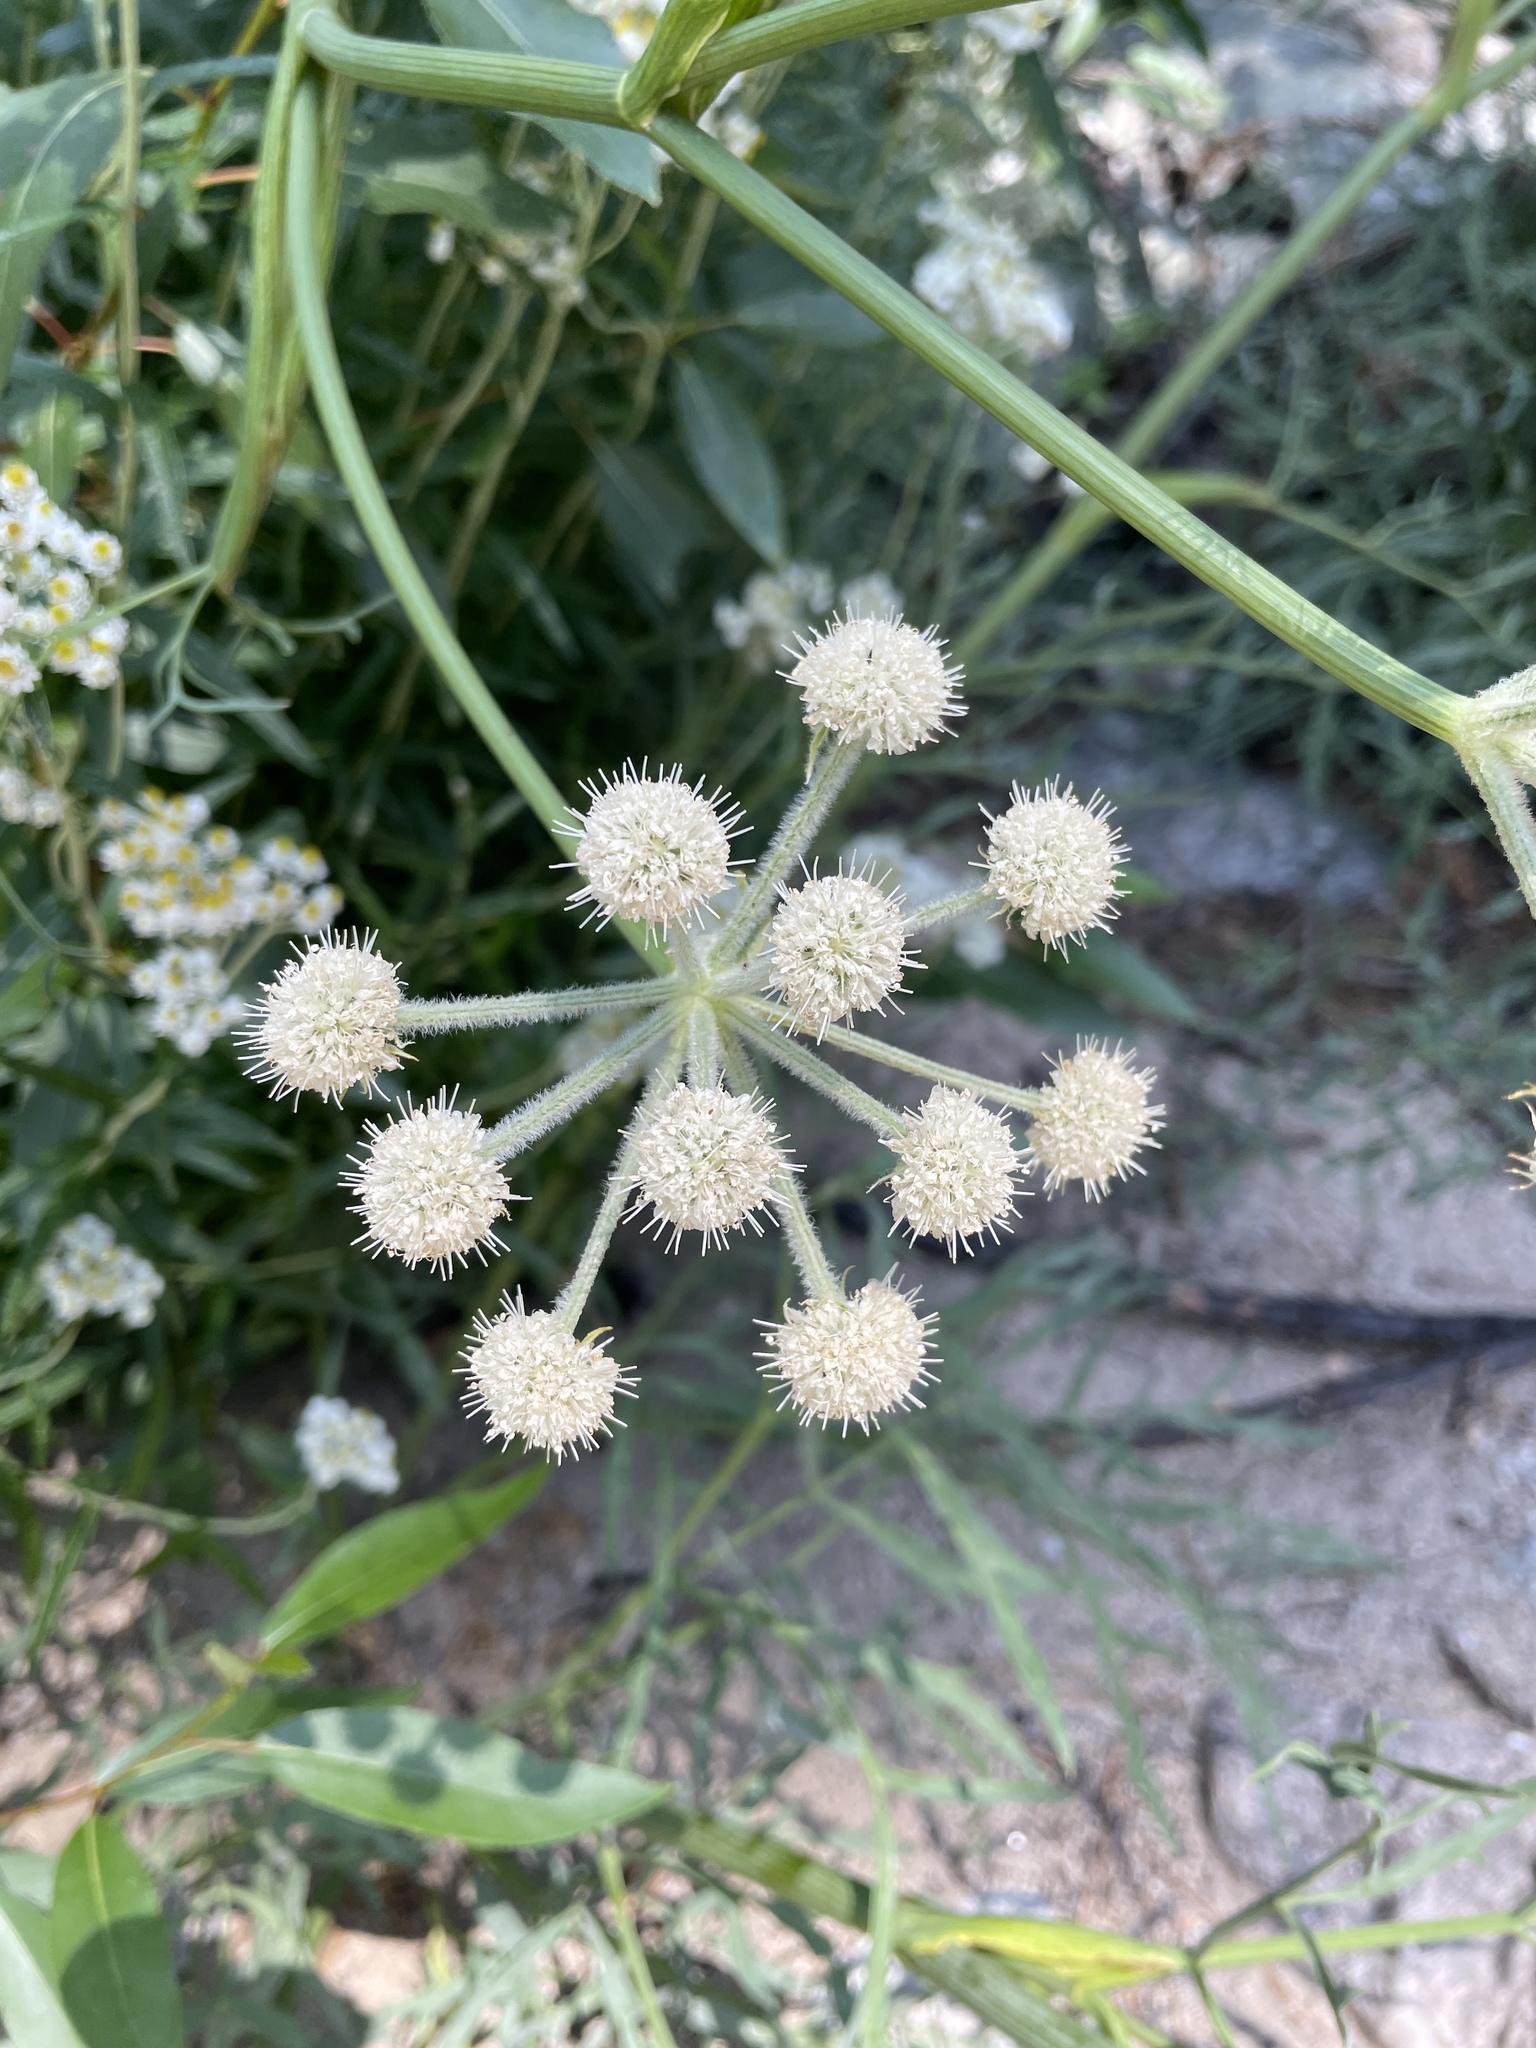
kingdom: Plantae
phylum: Tracheophyta
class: Magnoliopsida
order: Apiales
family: Apiaceae
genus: Angelica
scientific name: Angelica capitellata
